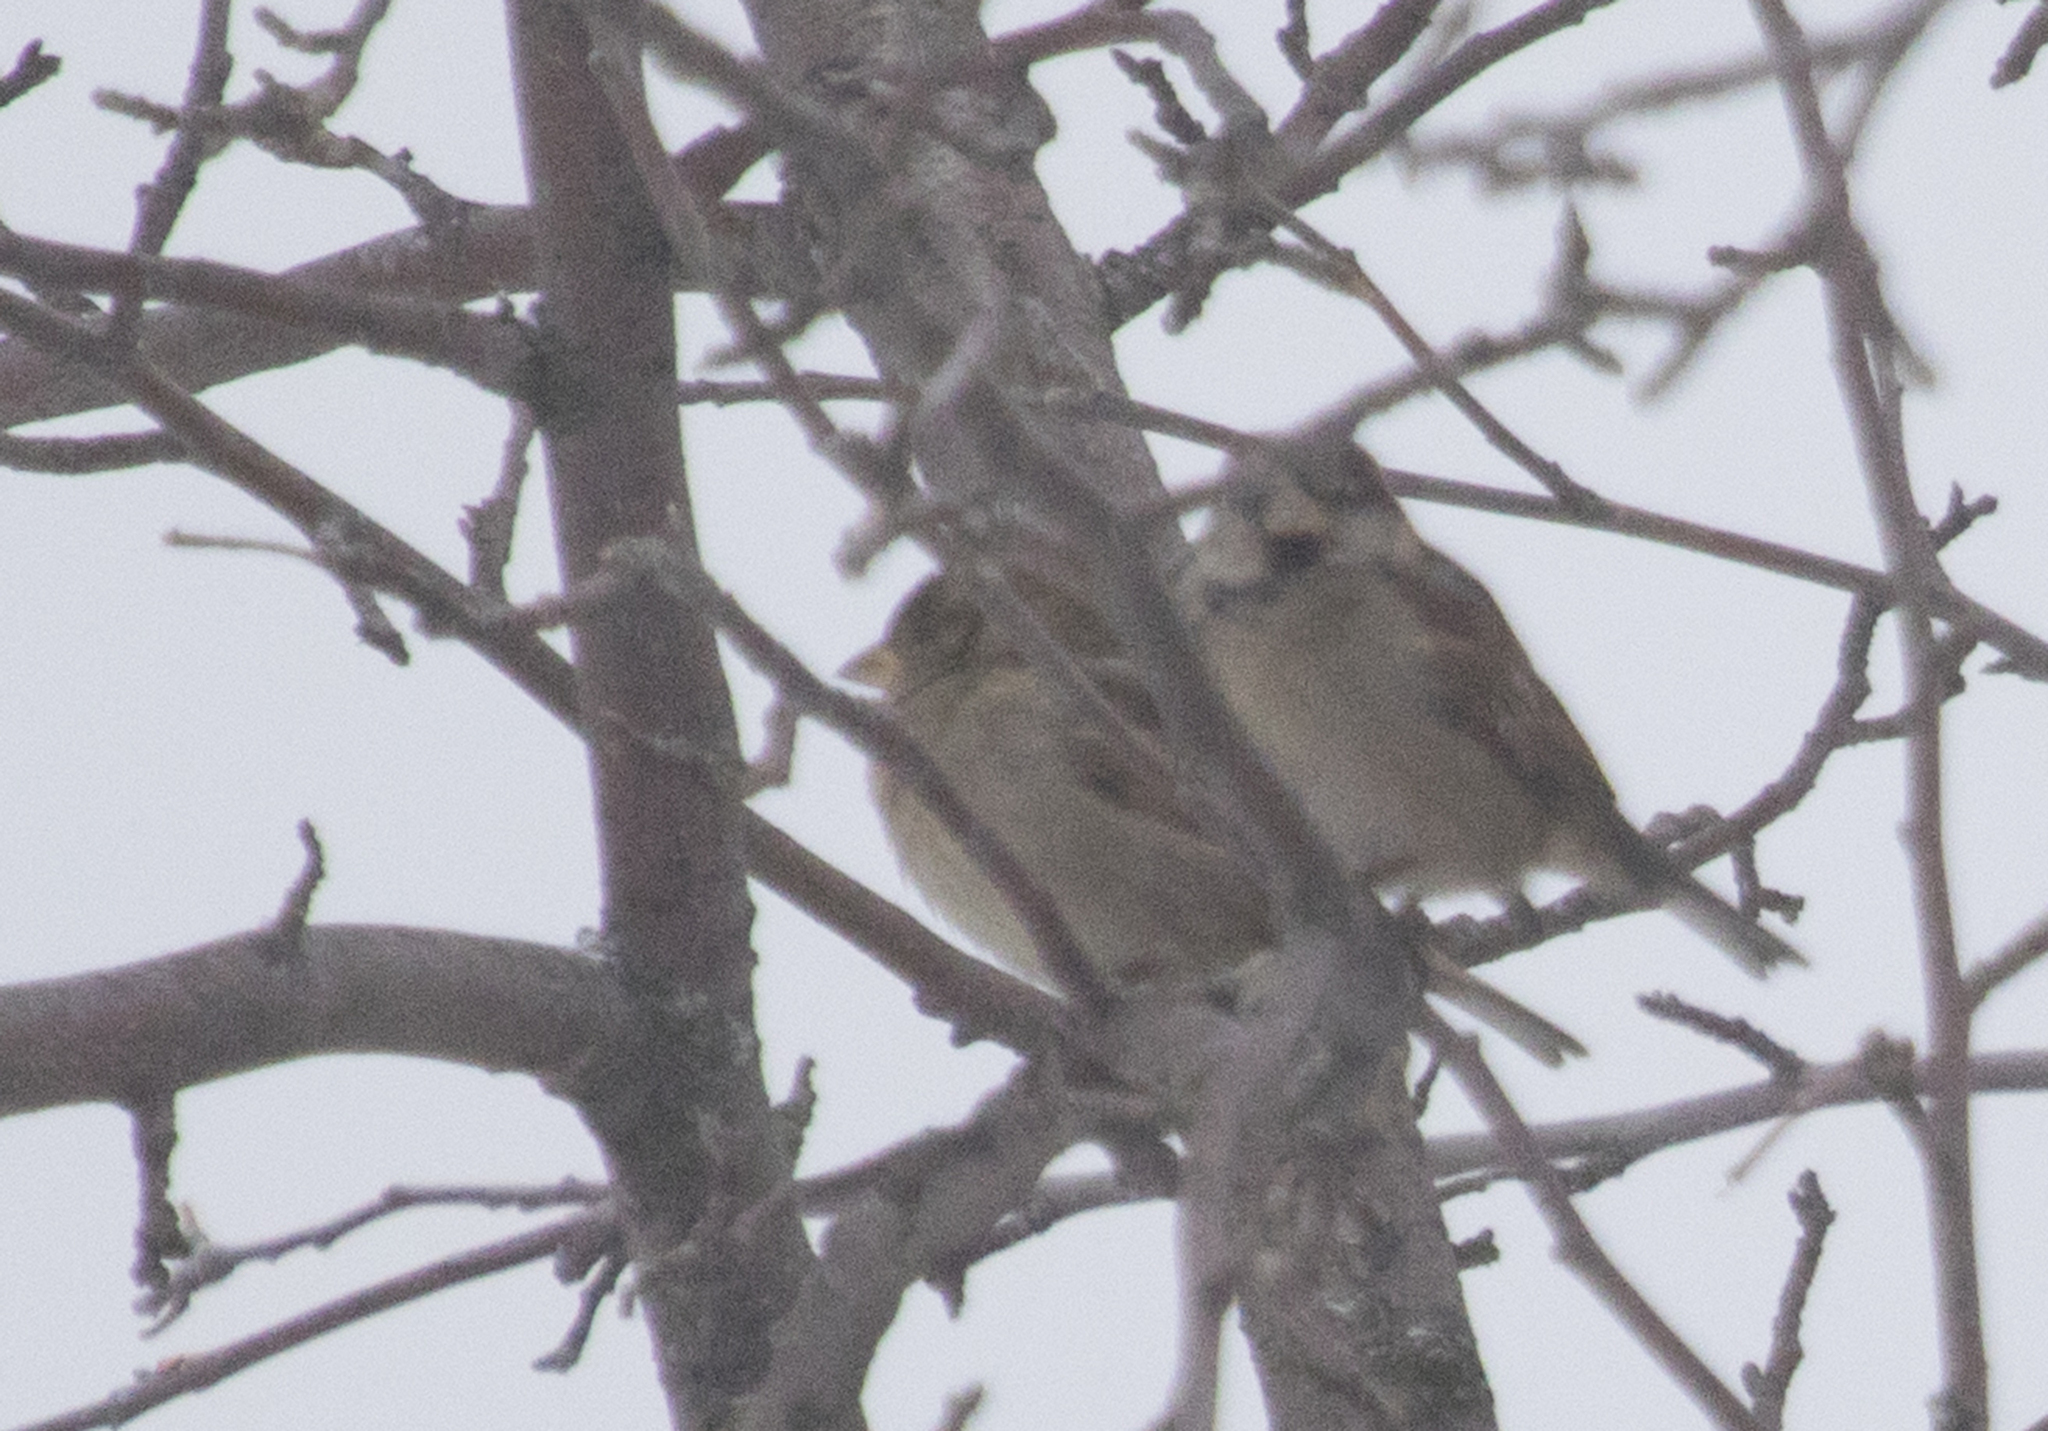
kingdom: Animalia
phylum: Chordata
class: Aves
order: Passeriformes
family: Passeridae
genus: Passer
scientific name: Passer domesticus
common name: House sparrow
